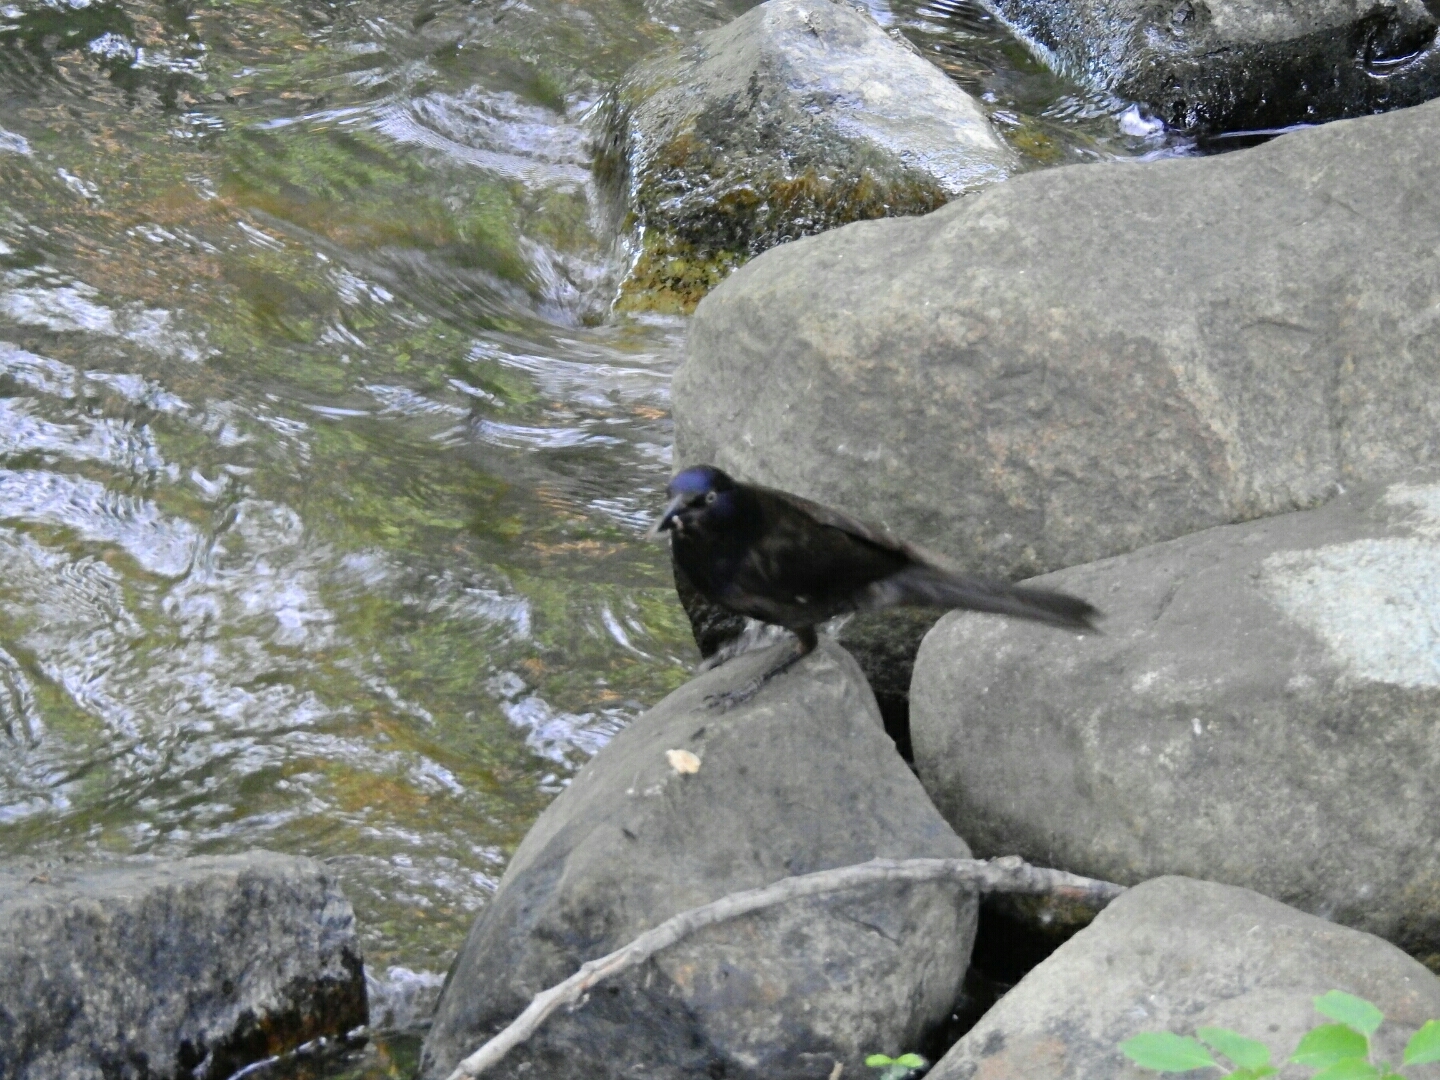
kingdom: Animalia
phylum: Chordata
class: Aves
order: Passeriformes
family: Icteridae
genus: Quiscalus
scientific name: Quiscalus quiscula
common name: Common grackle
